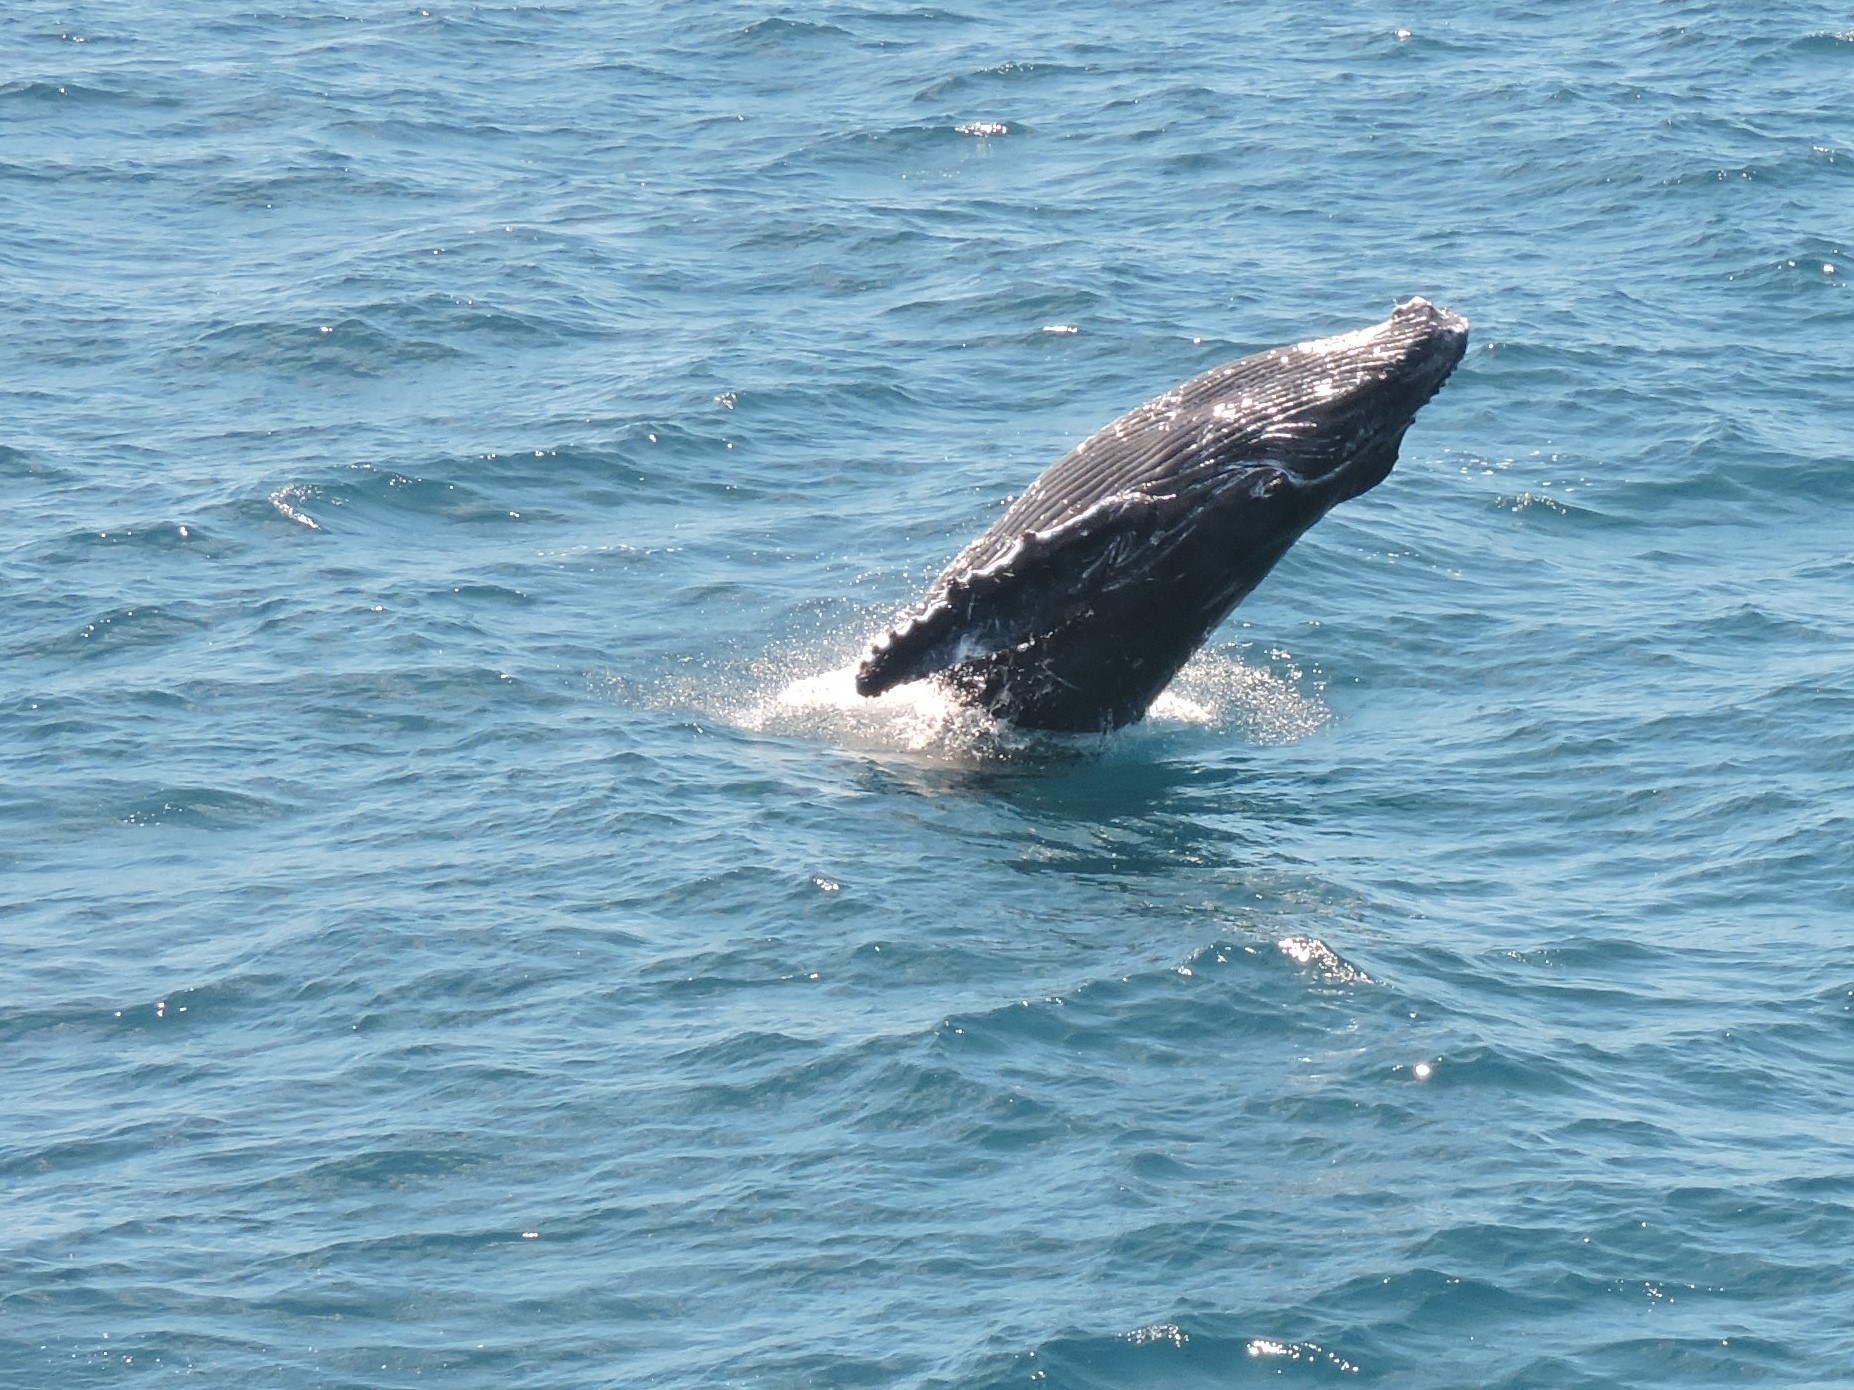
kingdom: Animalia
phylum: Chordata
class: Mammalia
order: Cetacea
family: Balaenopteridae
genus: Megaptera
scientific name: Megaptera novaeangliae
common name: Humpback whale
